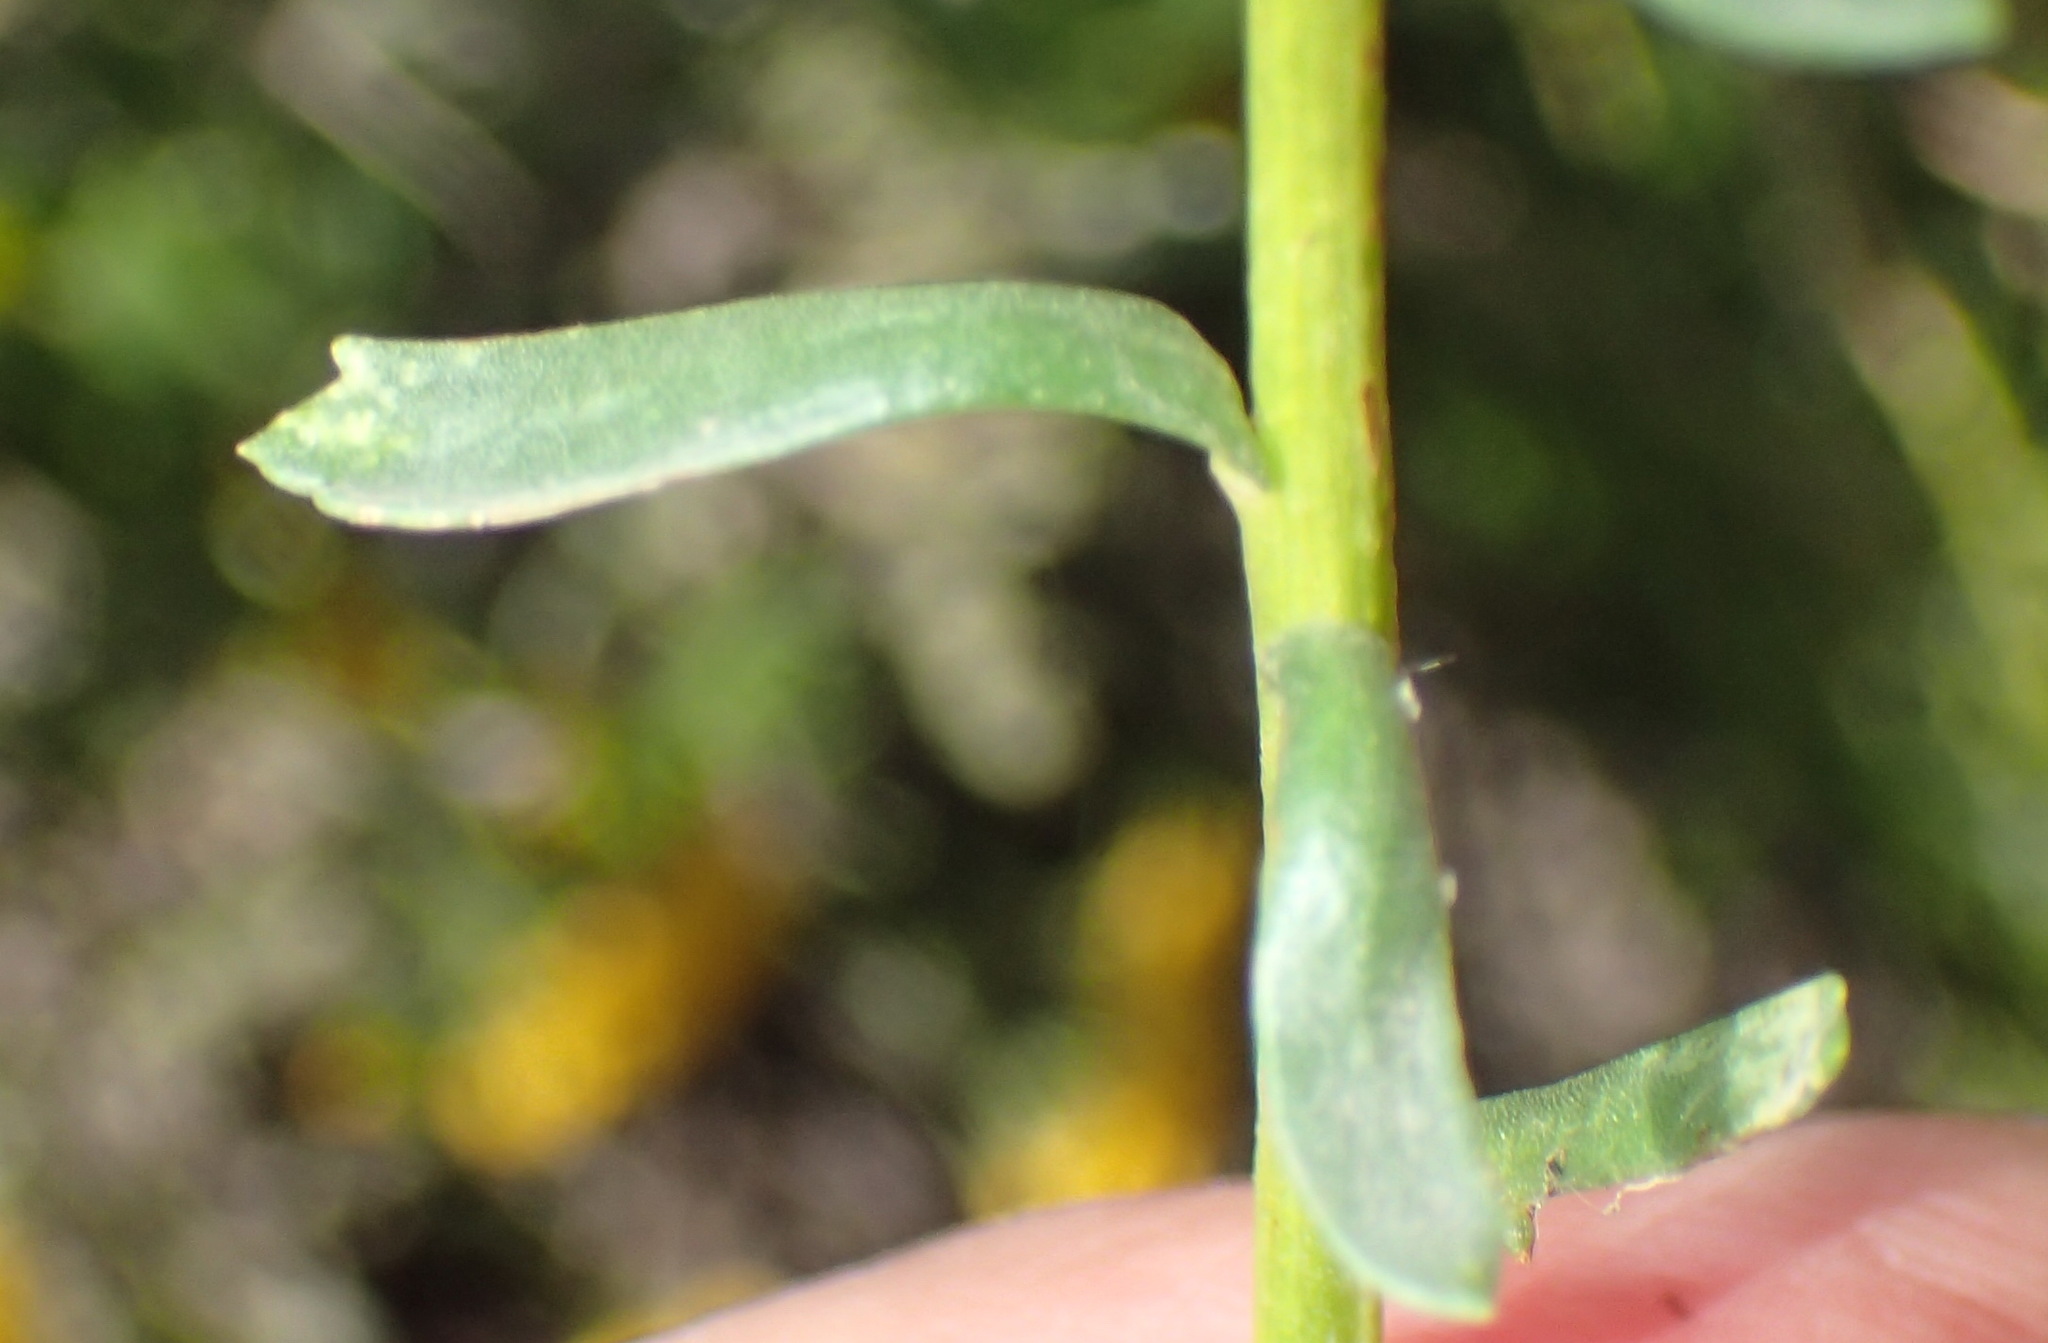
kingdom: Plantae
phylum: Tracheophyta
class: Magnoliopsida
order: Asterales
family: Asteraceae
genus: Athanasia
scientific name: Athanasia trifurcata
